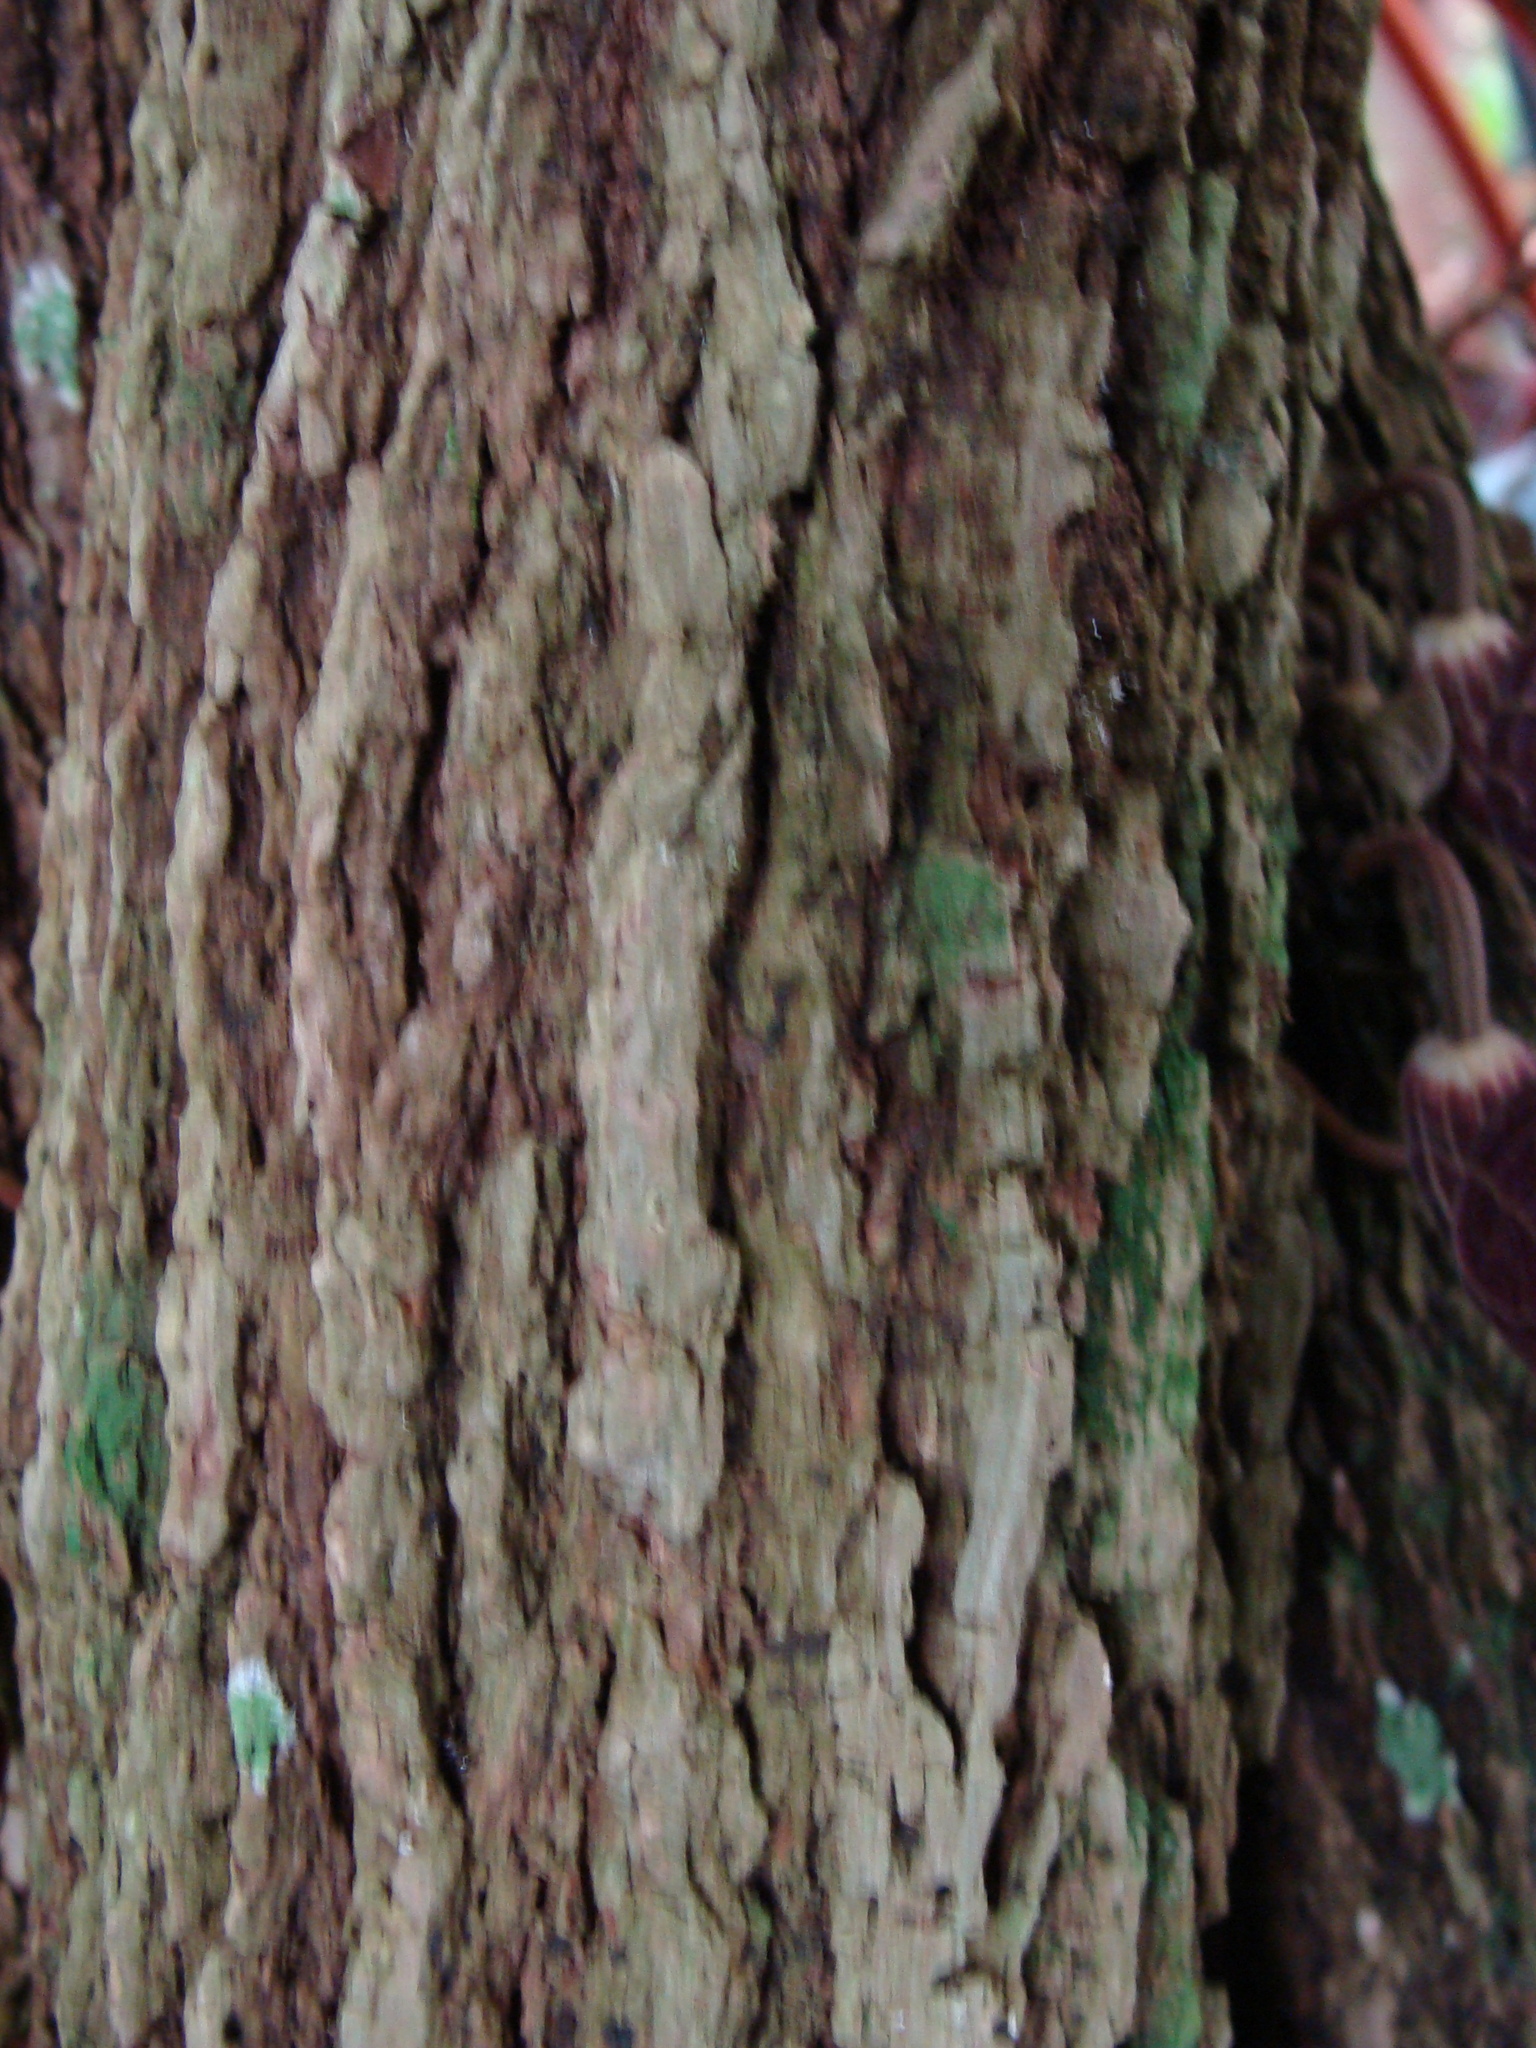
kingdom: Plantae
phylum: Tracheophyta
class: Magnoliopsida
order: Piperales
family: Aristolochiaceae
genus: Isotrema
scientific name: Isotrema arborea
